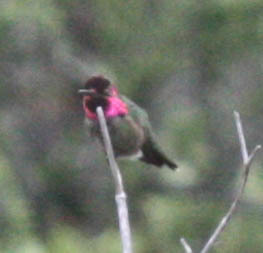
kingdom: Animalia
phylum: Chordata
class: Aves
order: Apodiformes
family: Trochilidae
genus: Calypte
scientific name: Calypte anna
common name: Anna's hummingbird
